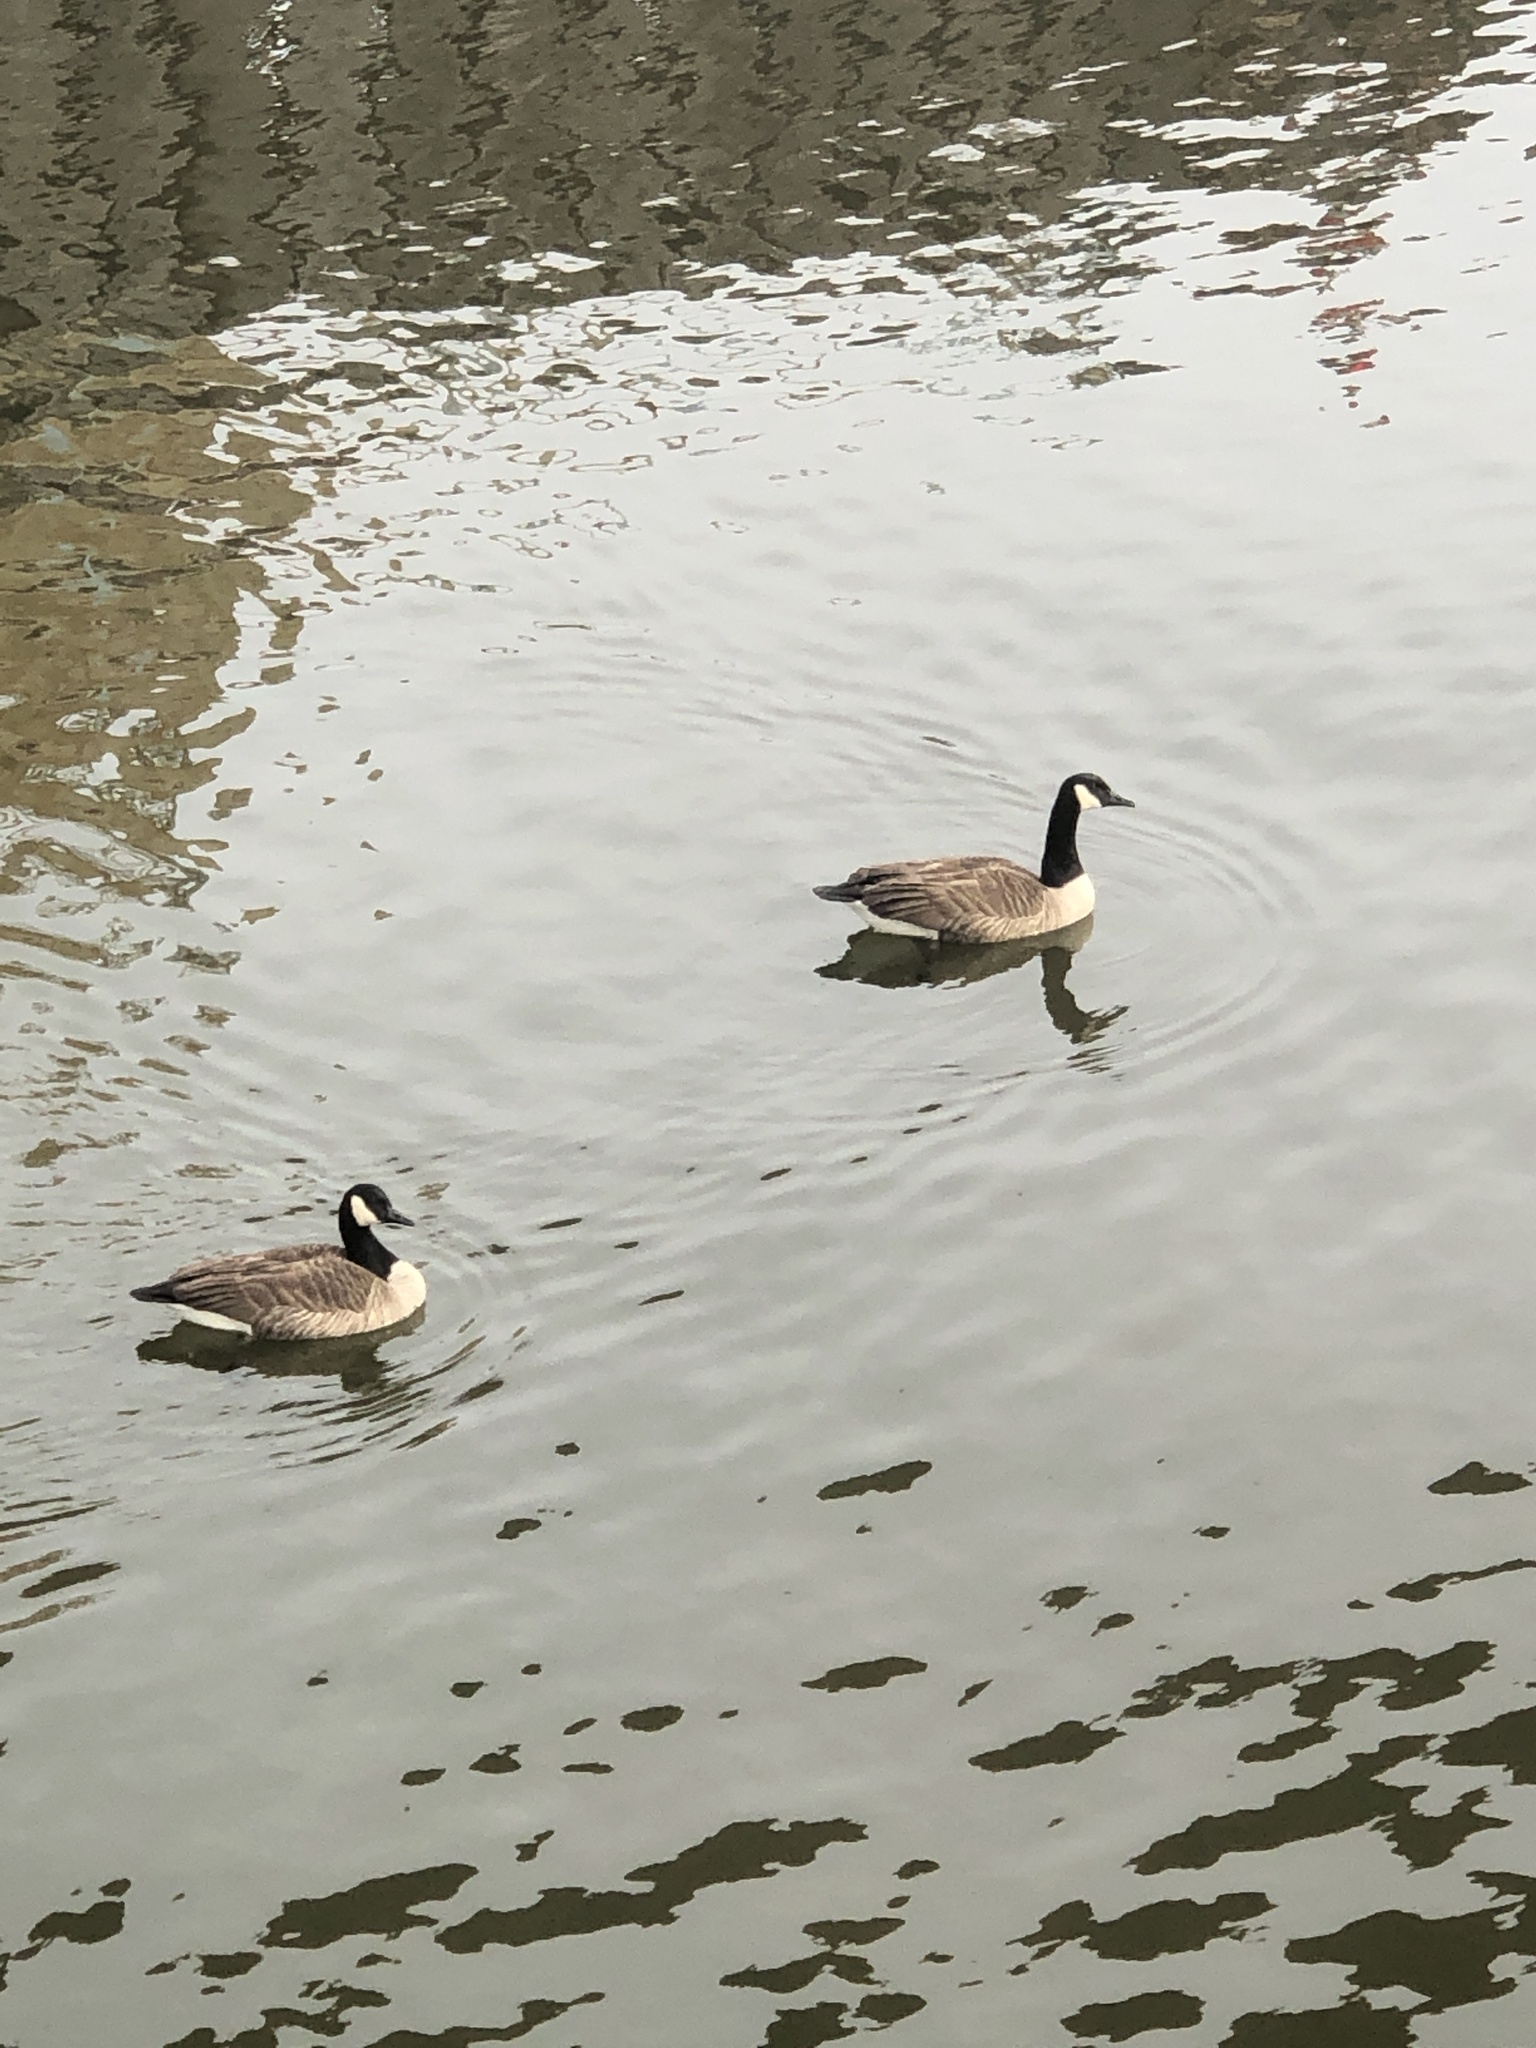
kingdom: Animalia
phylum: Chordata
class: Aves
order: Anseriformes
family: Anatidae
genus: Branta
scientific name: Branta canadensis
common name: Canada goose
